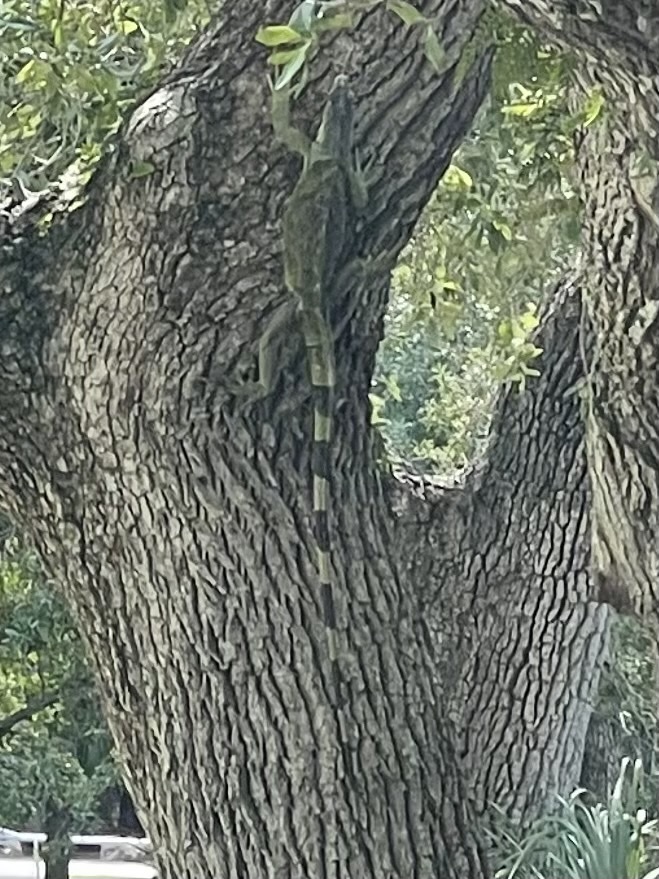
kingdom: Animalia
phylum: Chordata
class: Squamata
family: Iguanidae
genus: Iguana
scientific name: Iguana iguana
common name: Green iguana
